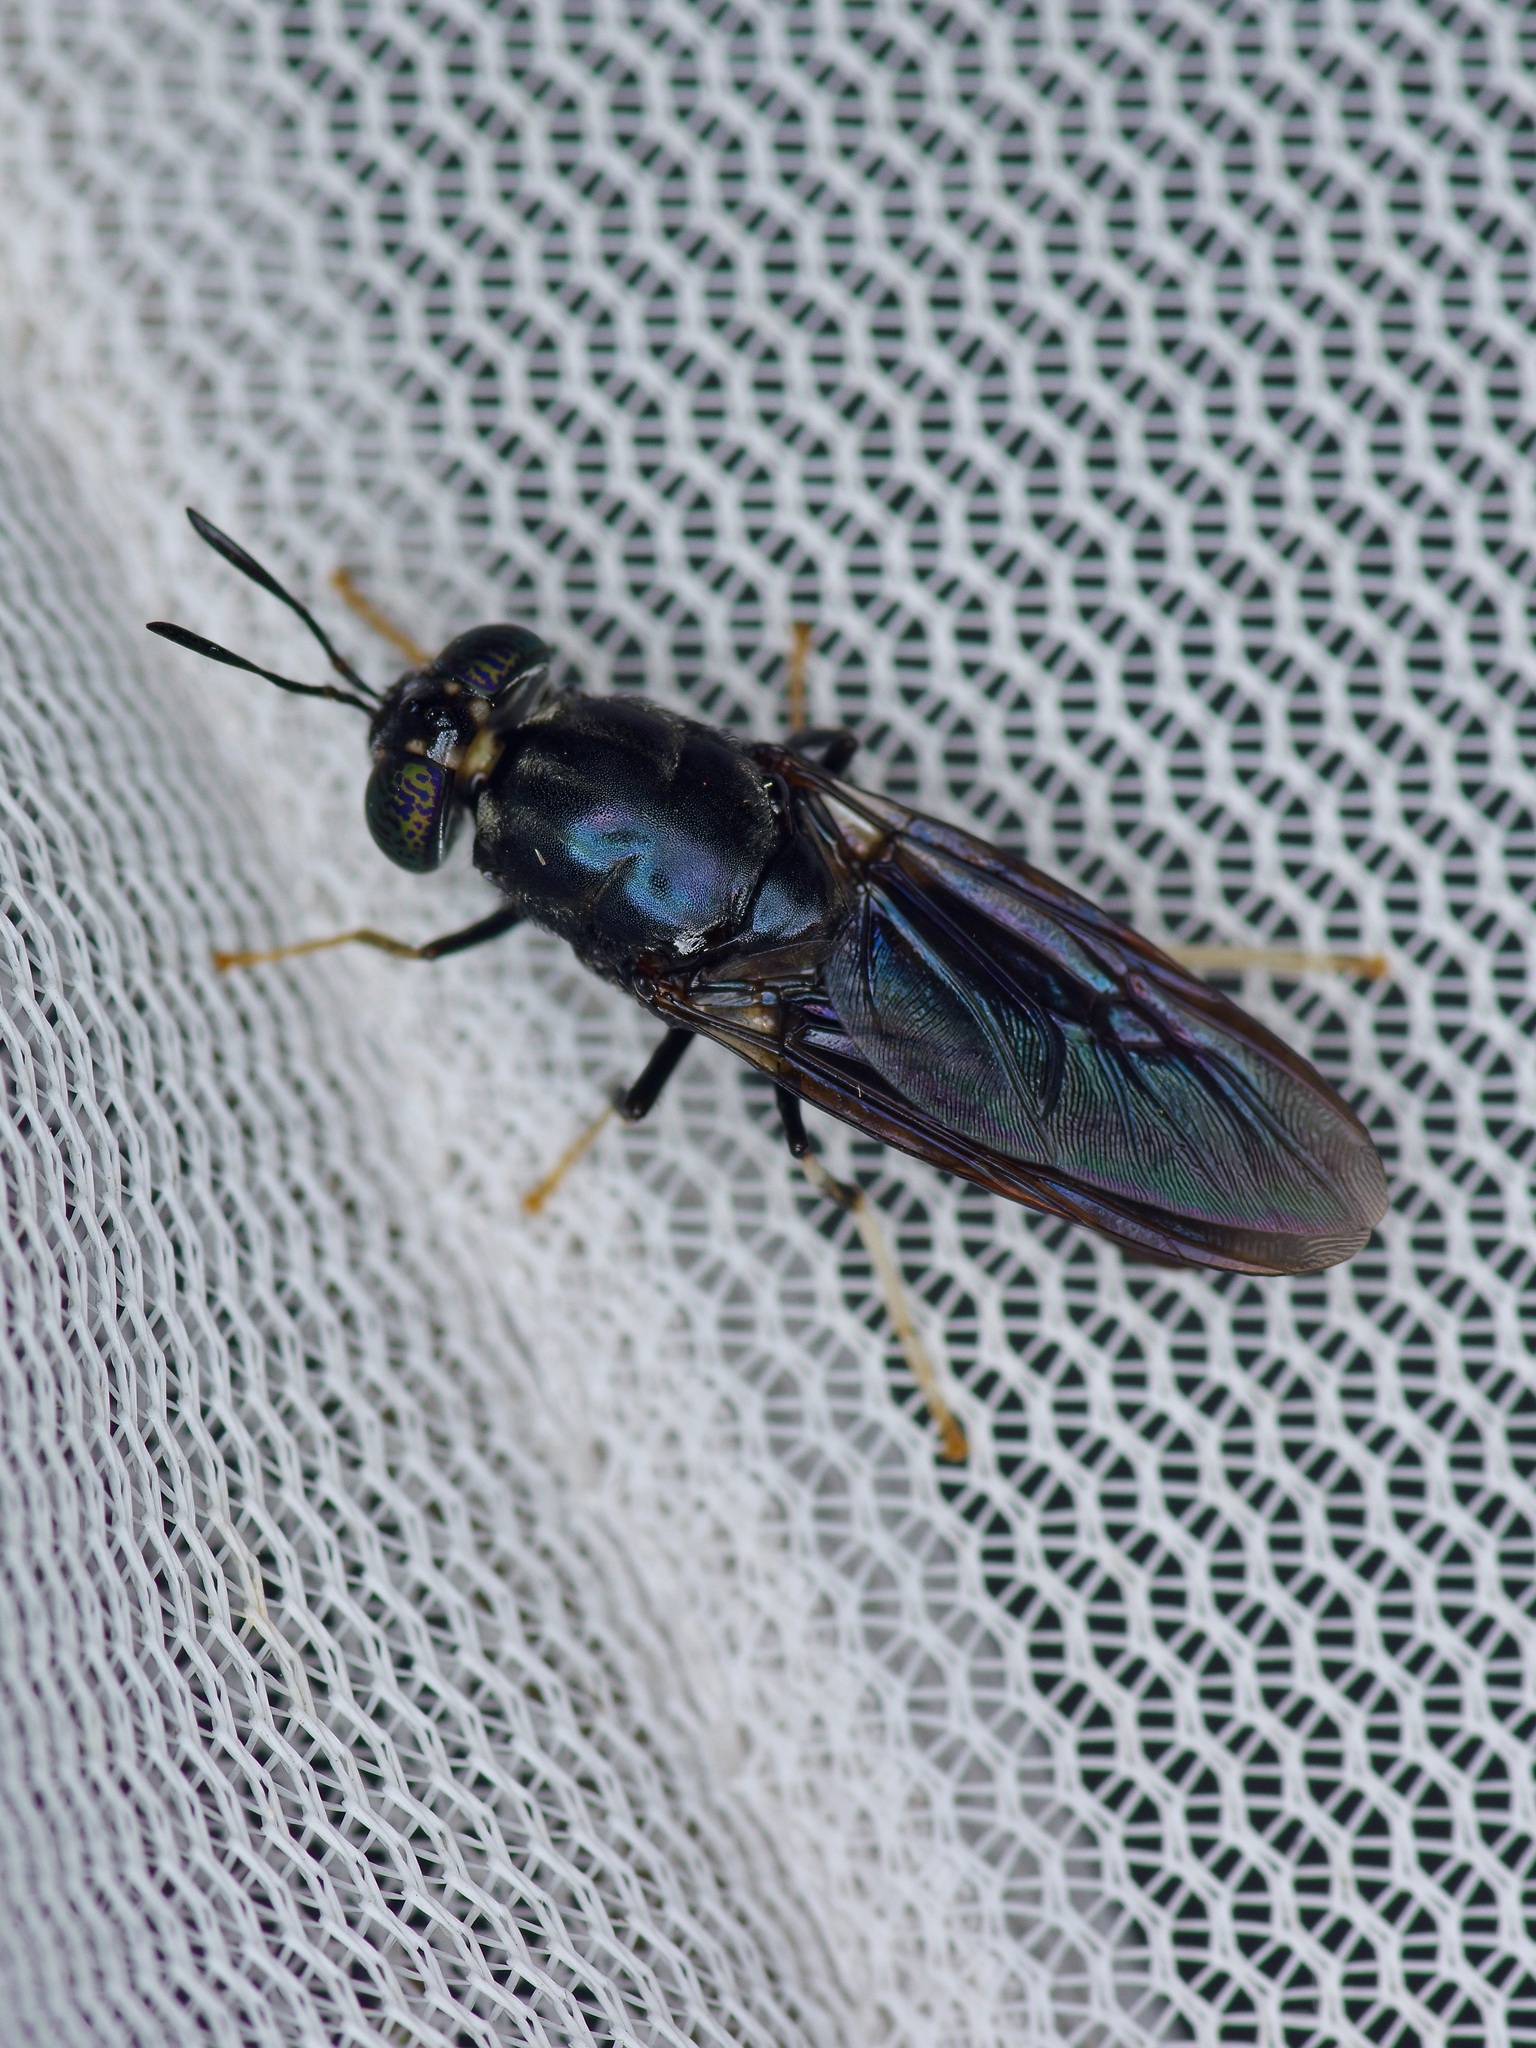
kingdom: Animalia
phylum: Arthropoda
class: Insecta
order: Diptera
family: Stratiomyidae
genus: Hermetia
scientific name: Hermetia illucens
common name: Black soldier fly
